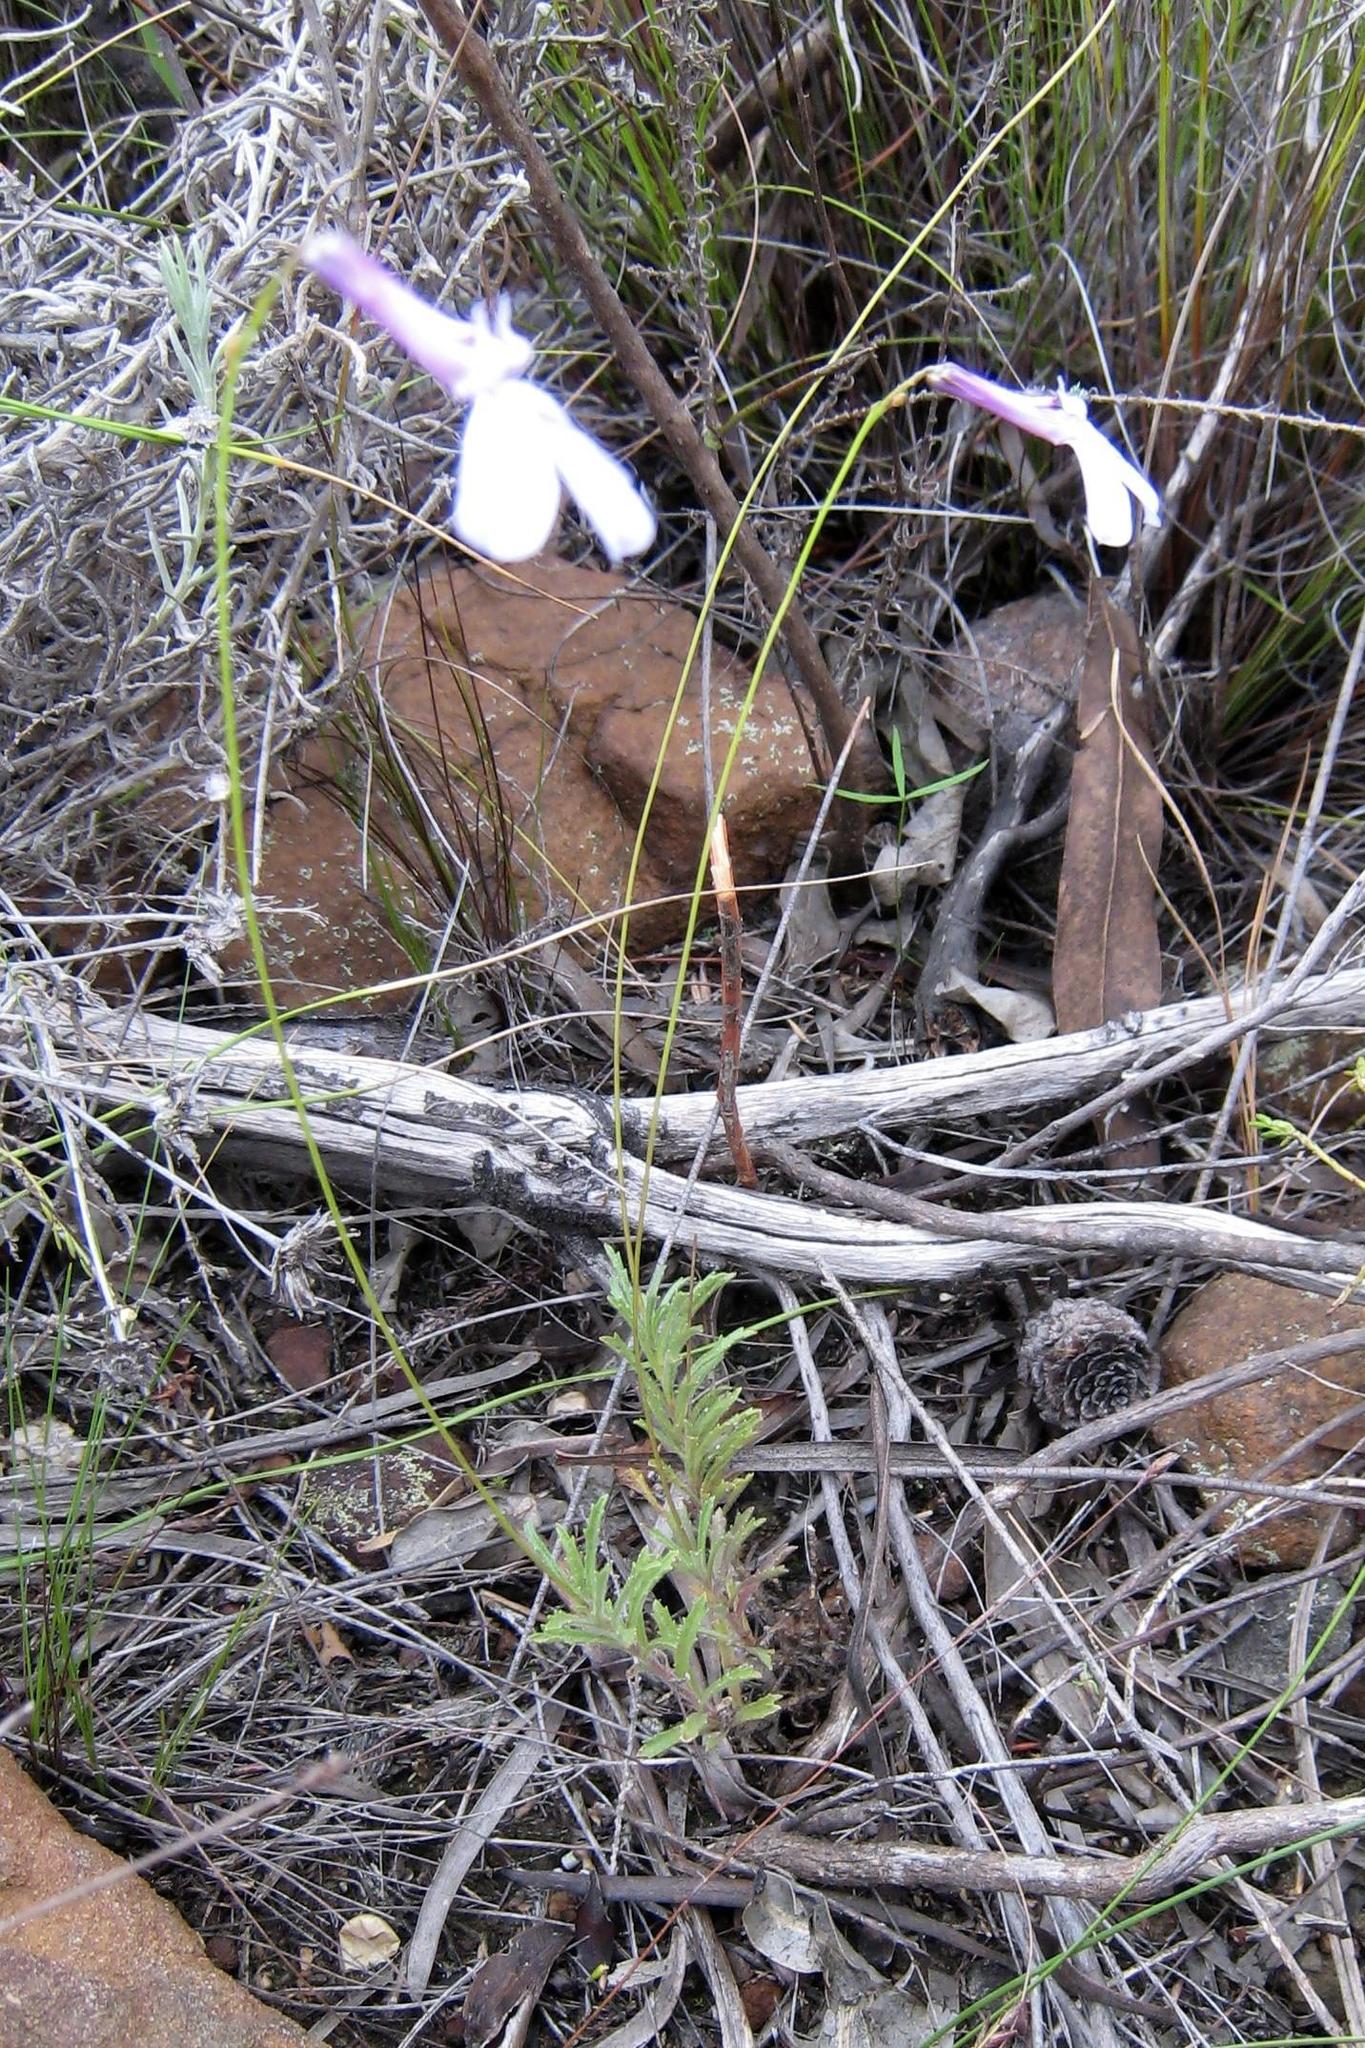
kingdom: Plantae
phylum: Tracheophyta
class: Magnoliopsida
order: Asterales
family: Campanulaceae
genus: Lobelia
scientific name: Lobelia chamaepitys
